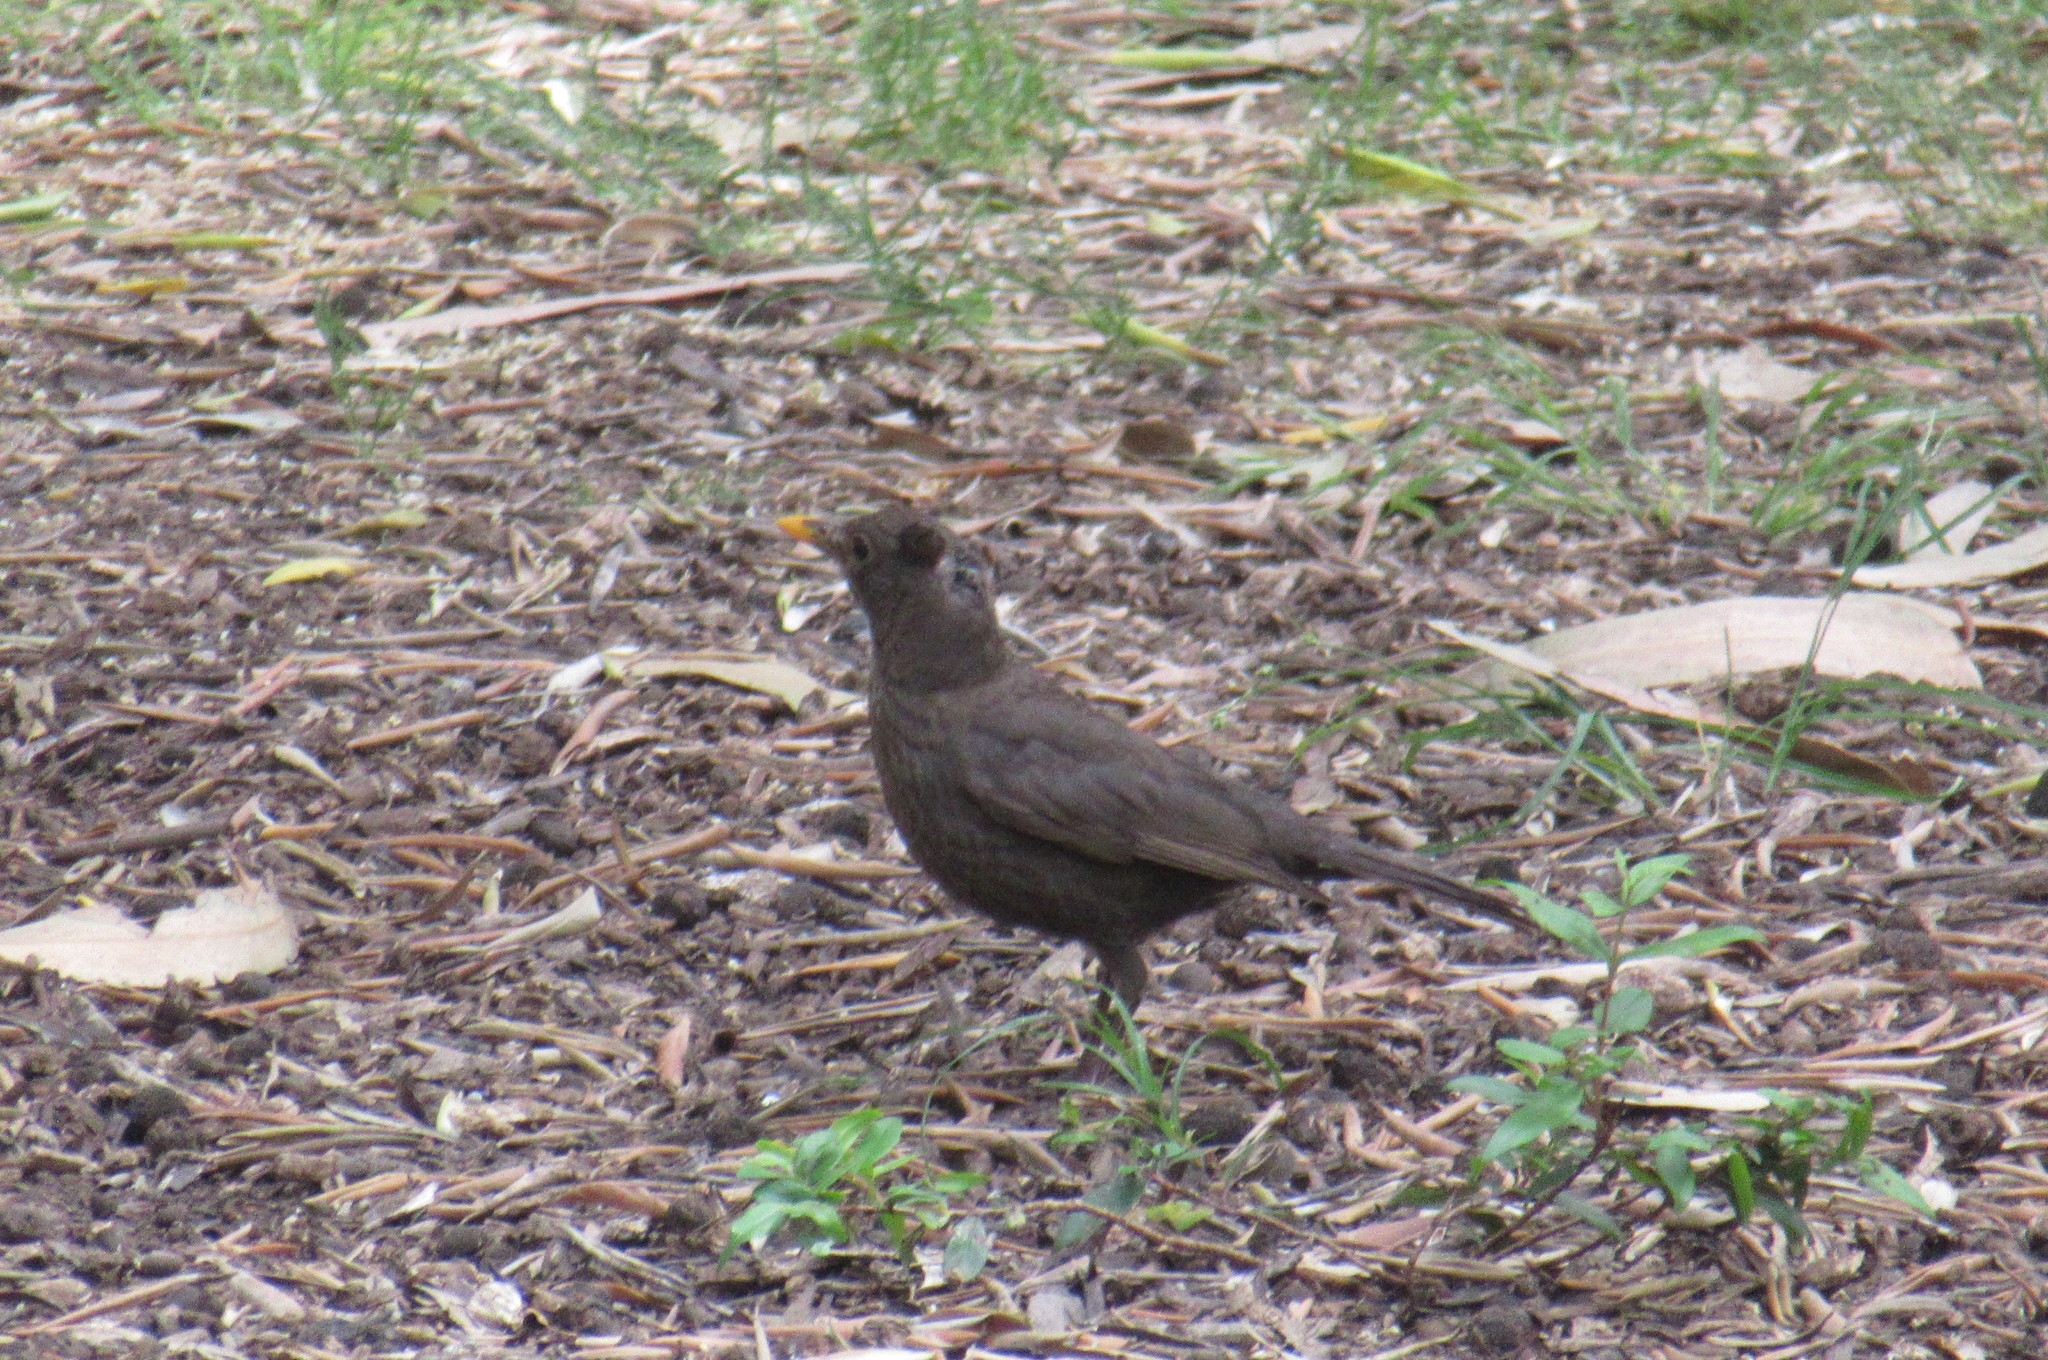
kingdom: Animalia
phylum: Chordata
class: Aves
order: Passeriformes
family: Turdidae
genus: Turdus
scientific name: Turdus merula
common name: Common blackbird
